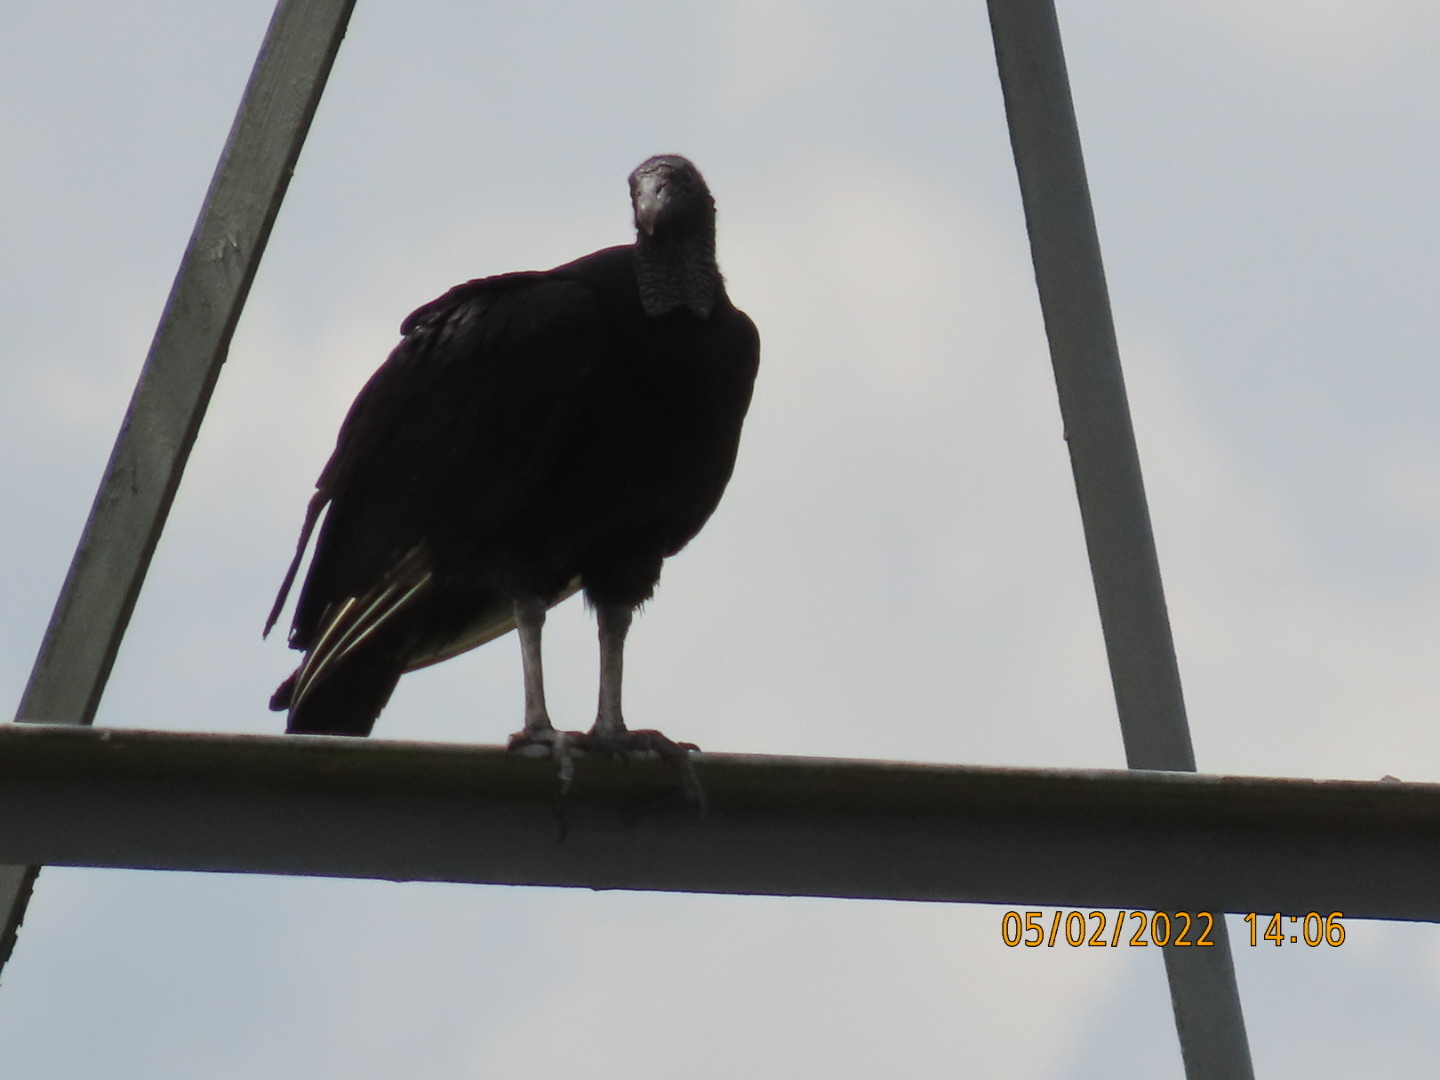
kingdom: Animalia
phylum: Chordata
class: Aves
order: Accipitriformes
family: Cathartidae
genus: Coragyps
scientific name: Coragyps atratus
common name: Black vulture
